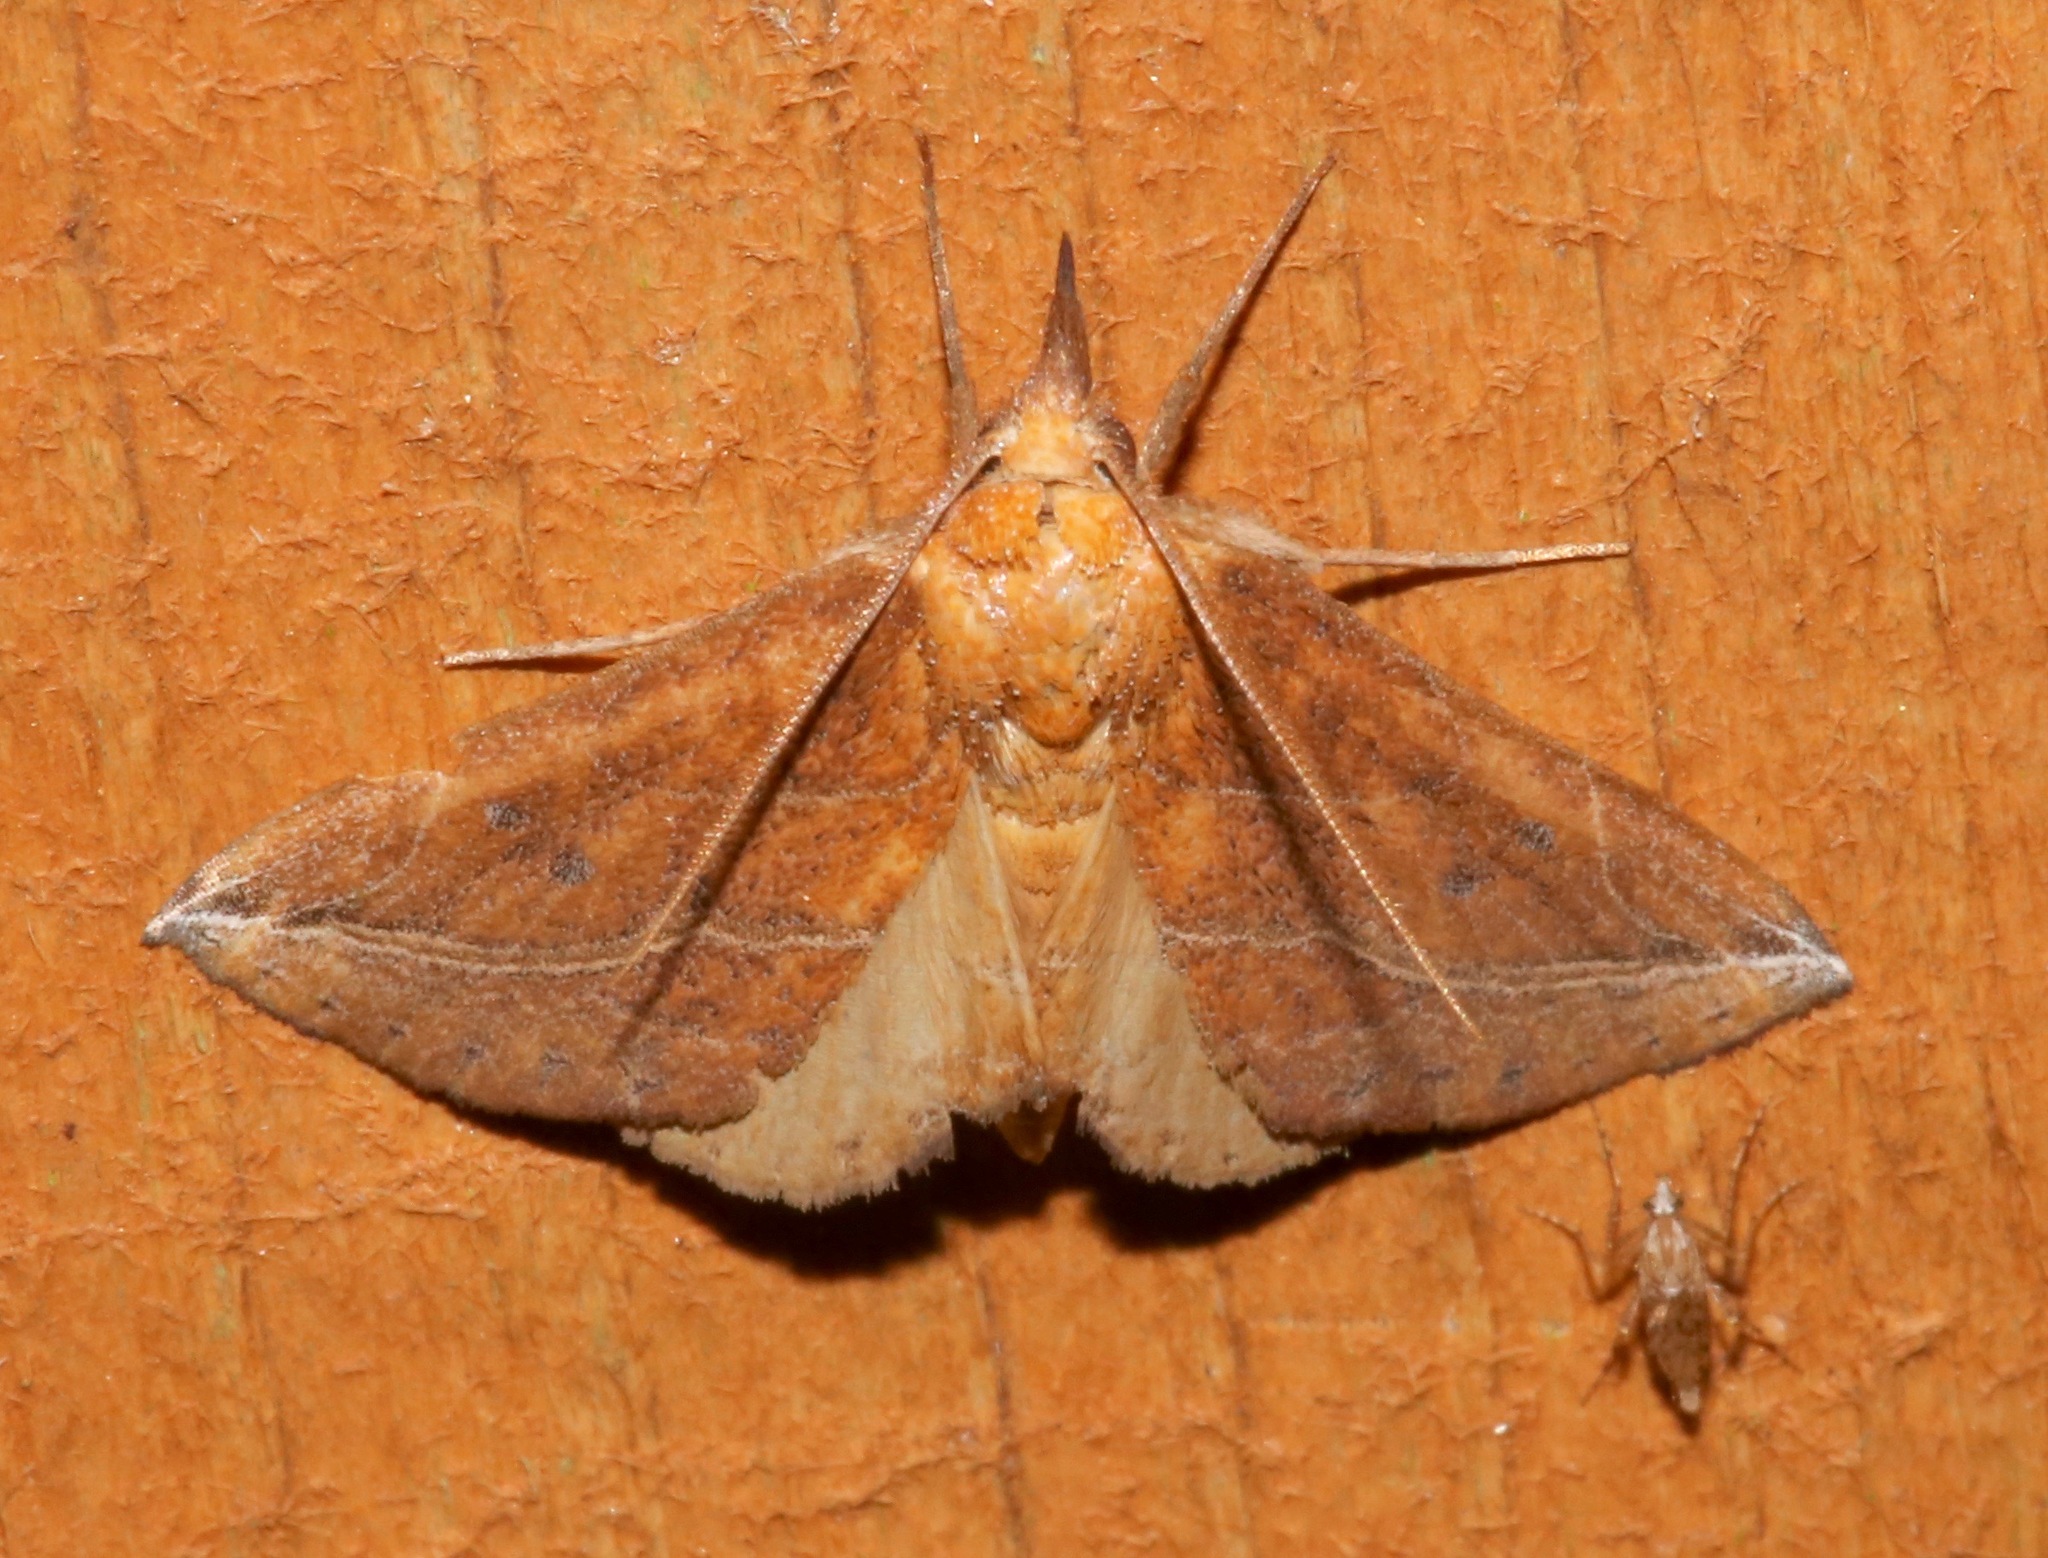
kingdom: Animalia
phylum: Arthropoda
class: Insecta
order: Lepidoptera
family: Erebidae
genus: Phyprosopus
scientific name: Phyprosopus callitrichoides
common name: Curved-lined owlet
